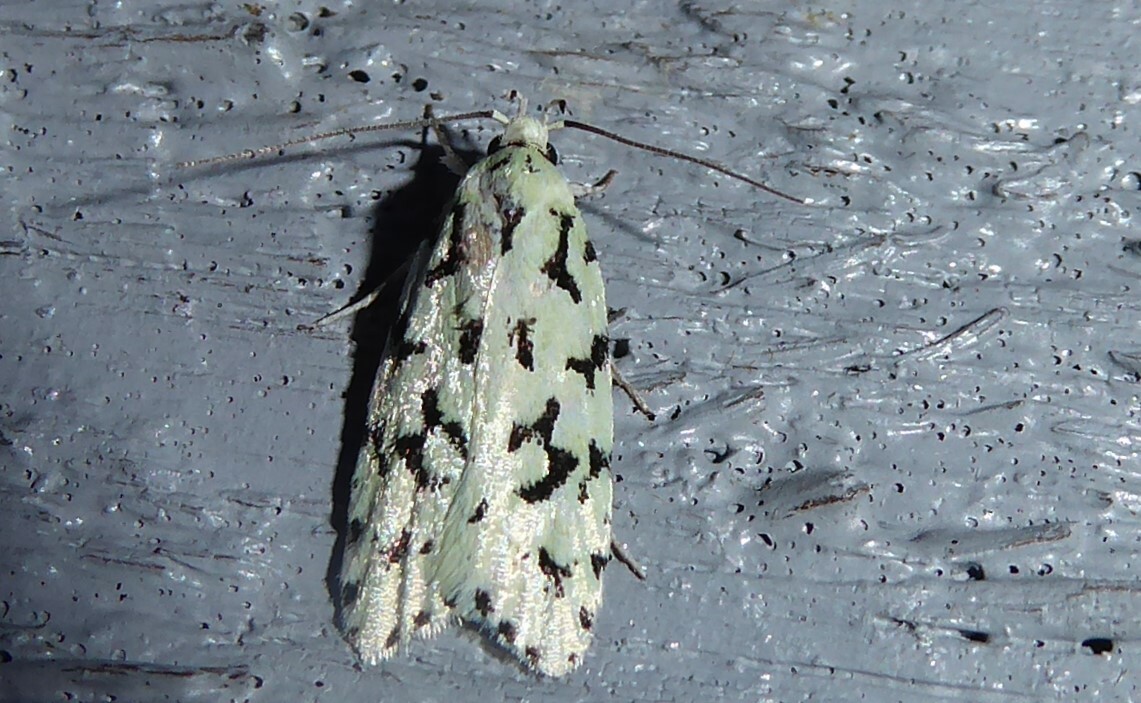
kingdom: Animalia
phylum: Arthropoda
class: Insecta
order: Lepidoptera
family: Oecophoridae
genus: Izatha
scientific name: Izatha huttoni
